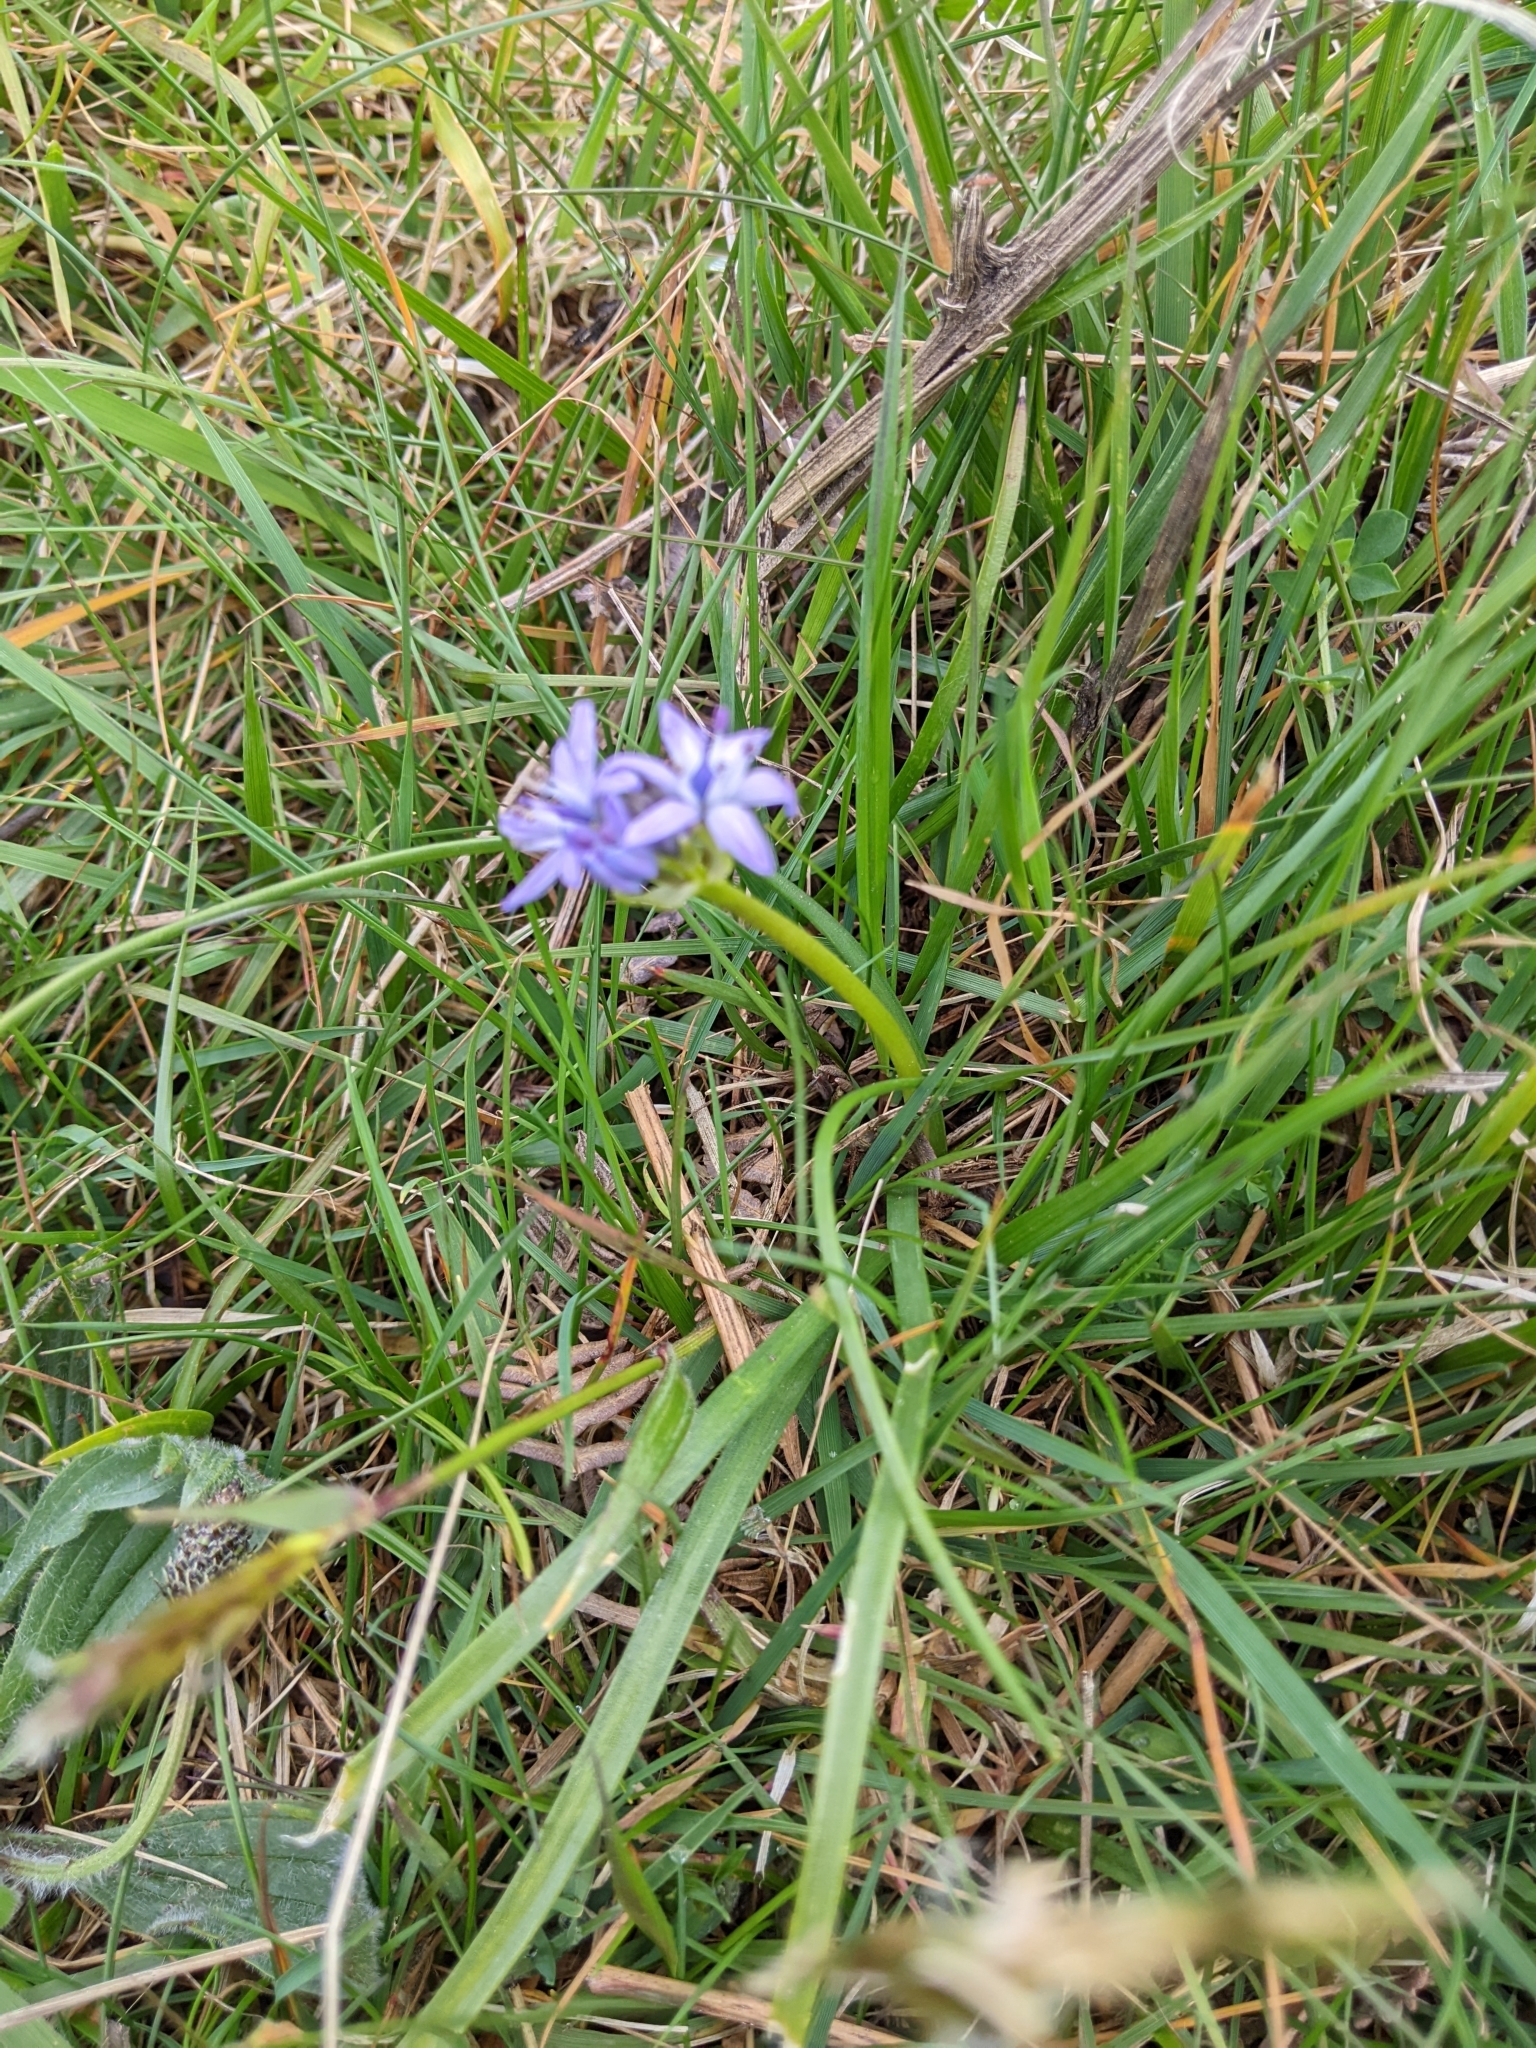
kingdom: Plantae
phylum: Tracheophyta
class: Liliopsida
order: Asparagales
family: Asparagaceae
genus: Scilla
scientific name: Scilla verna
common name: Spring squill
